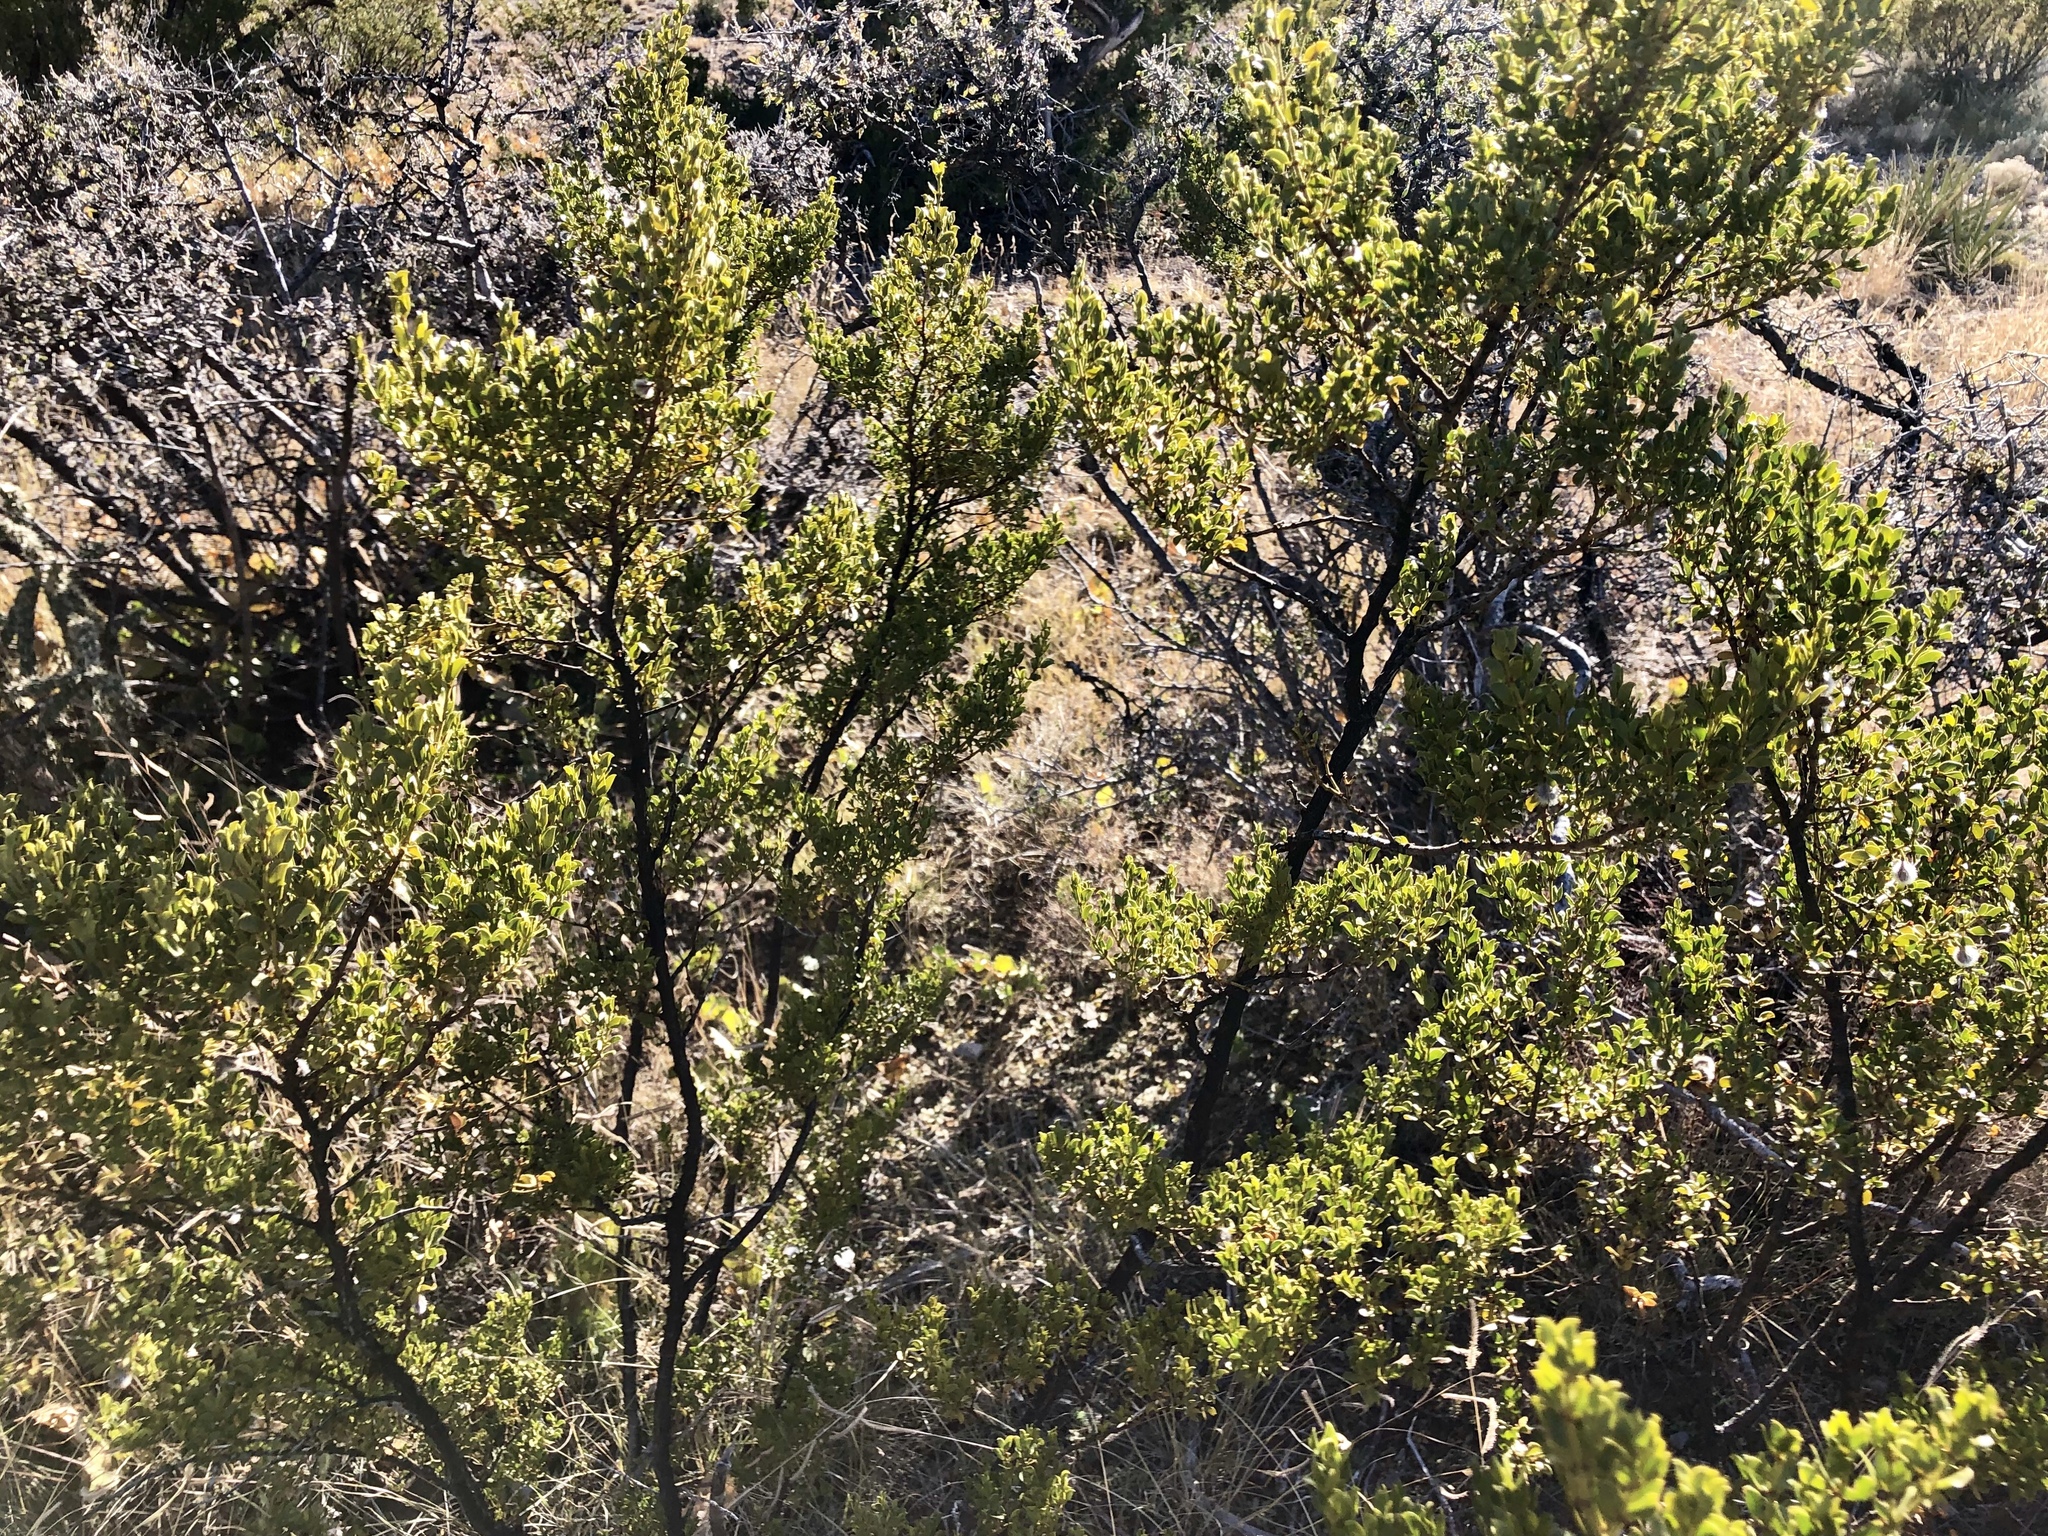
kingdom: Plantae
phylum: Tracheophyta
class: Magnoliopsida
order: Zygophyllales
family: Zygophyllaceae
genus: Larrea
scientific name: Larrea tridentata
